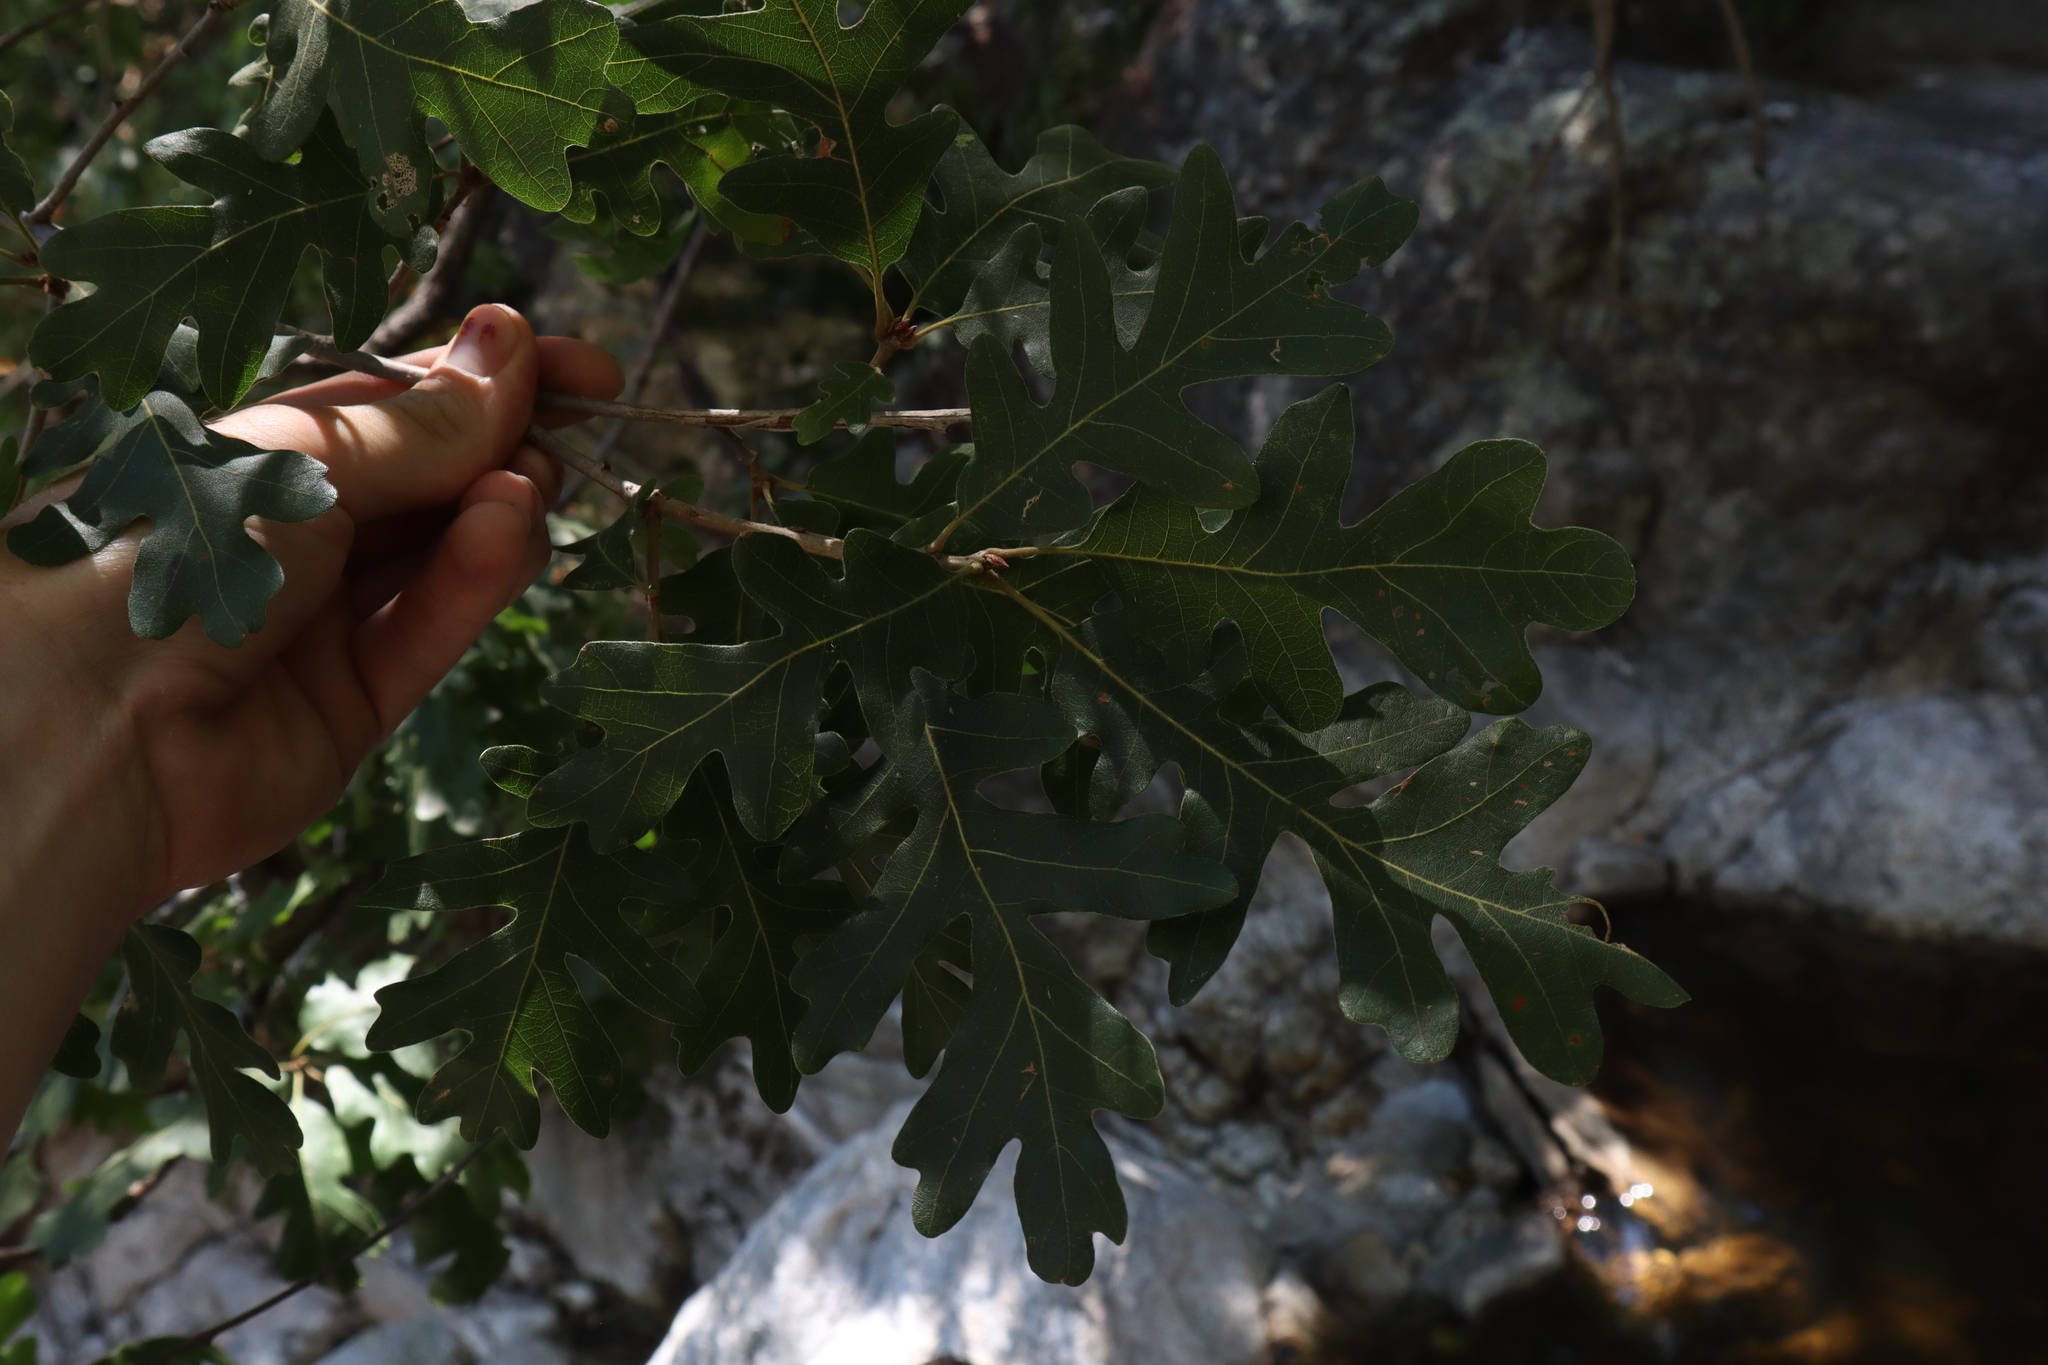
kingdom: Plantae
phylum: Tracheophyta
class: Magnoliopsida
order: Fagales
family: Fagaceae
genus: Quercus
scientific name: Quercus gambelii
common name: Gambel oak
